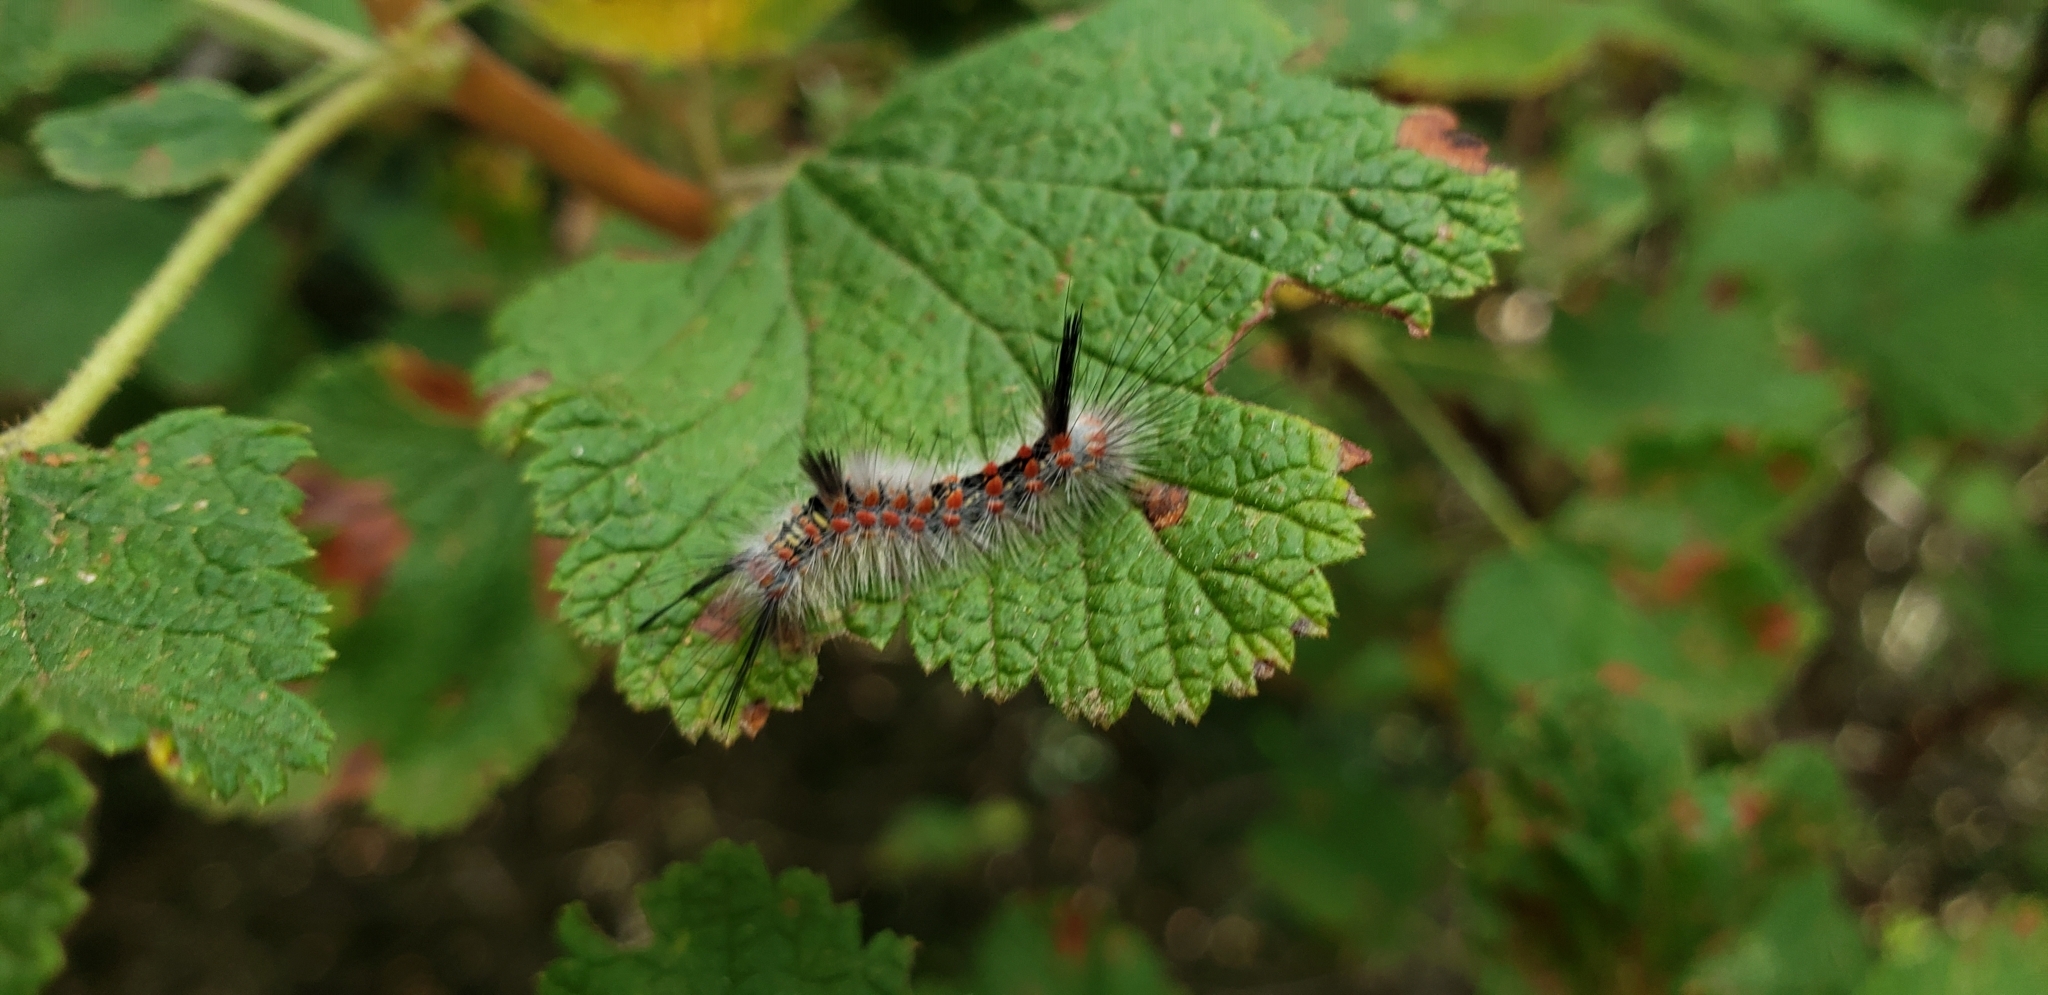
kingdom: Animalia
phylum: Arthropoda
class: Insecta
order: Lepidoptera
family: Erebidae
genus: Orgyia
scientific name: Orgyia
